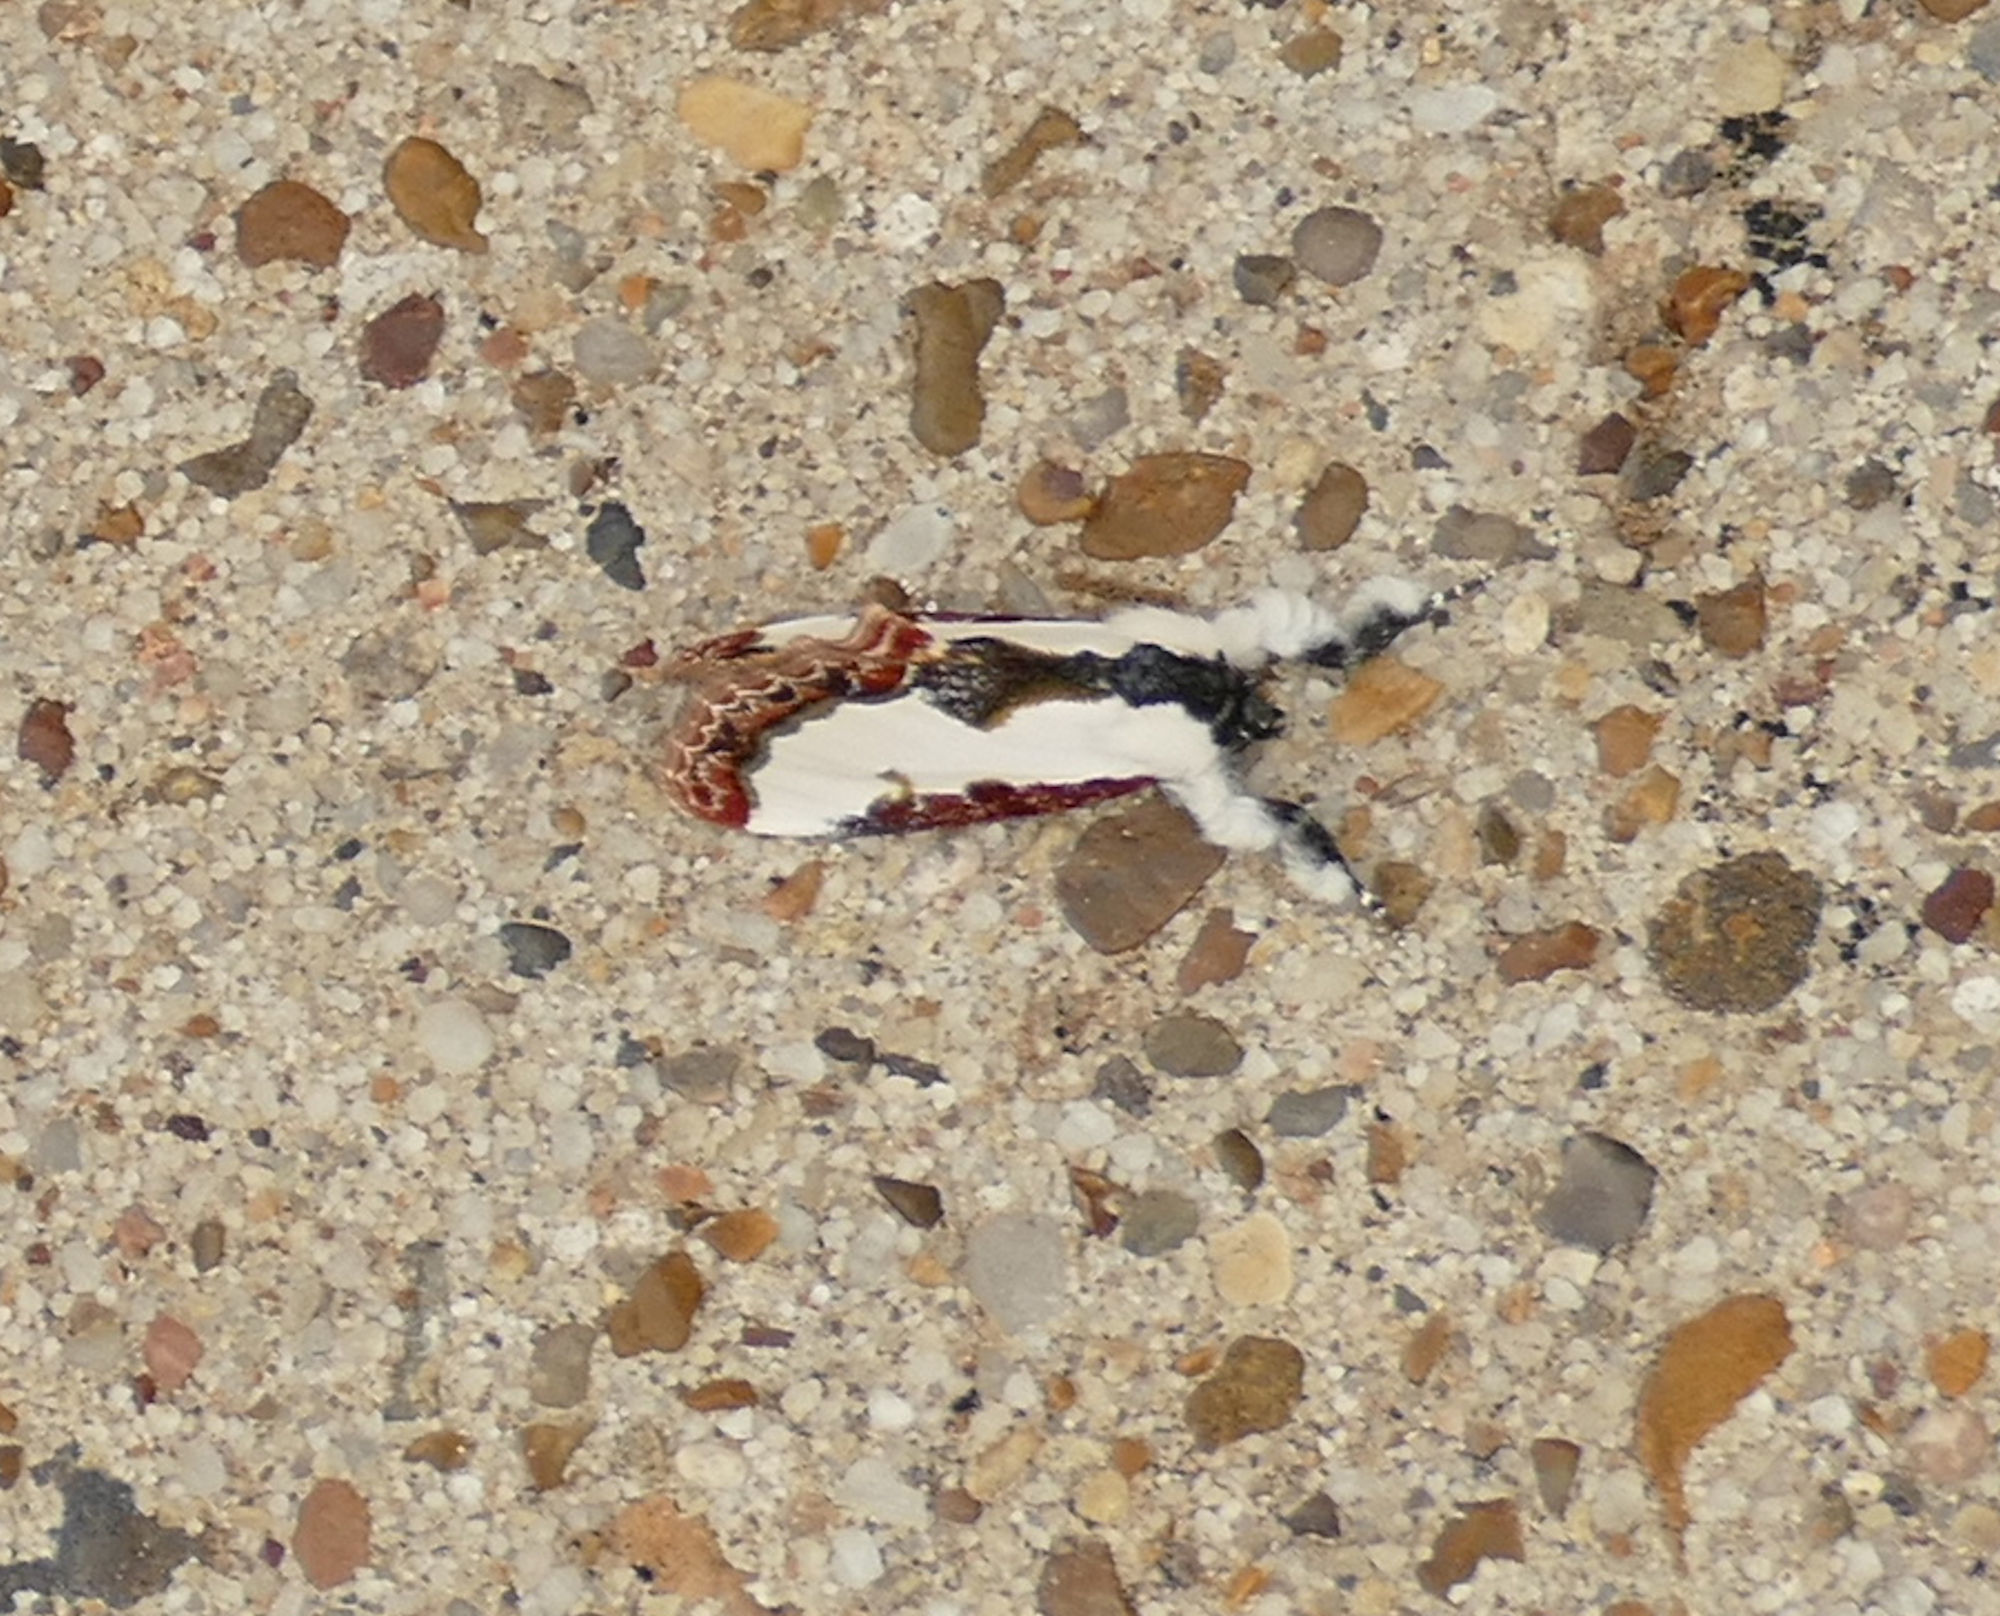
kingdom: Animalia
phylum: Arthropoda
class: Insecta
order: Lepidoptera
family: Noctuidae
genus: Eudryas
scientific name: Eudryas unio
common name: Pearly wood-nymph
